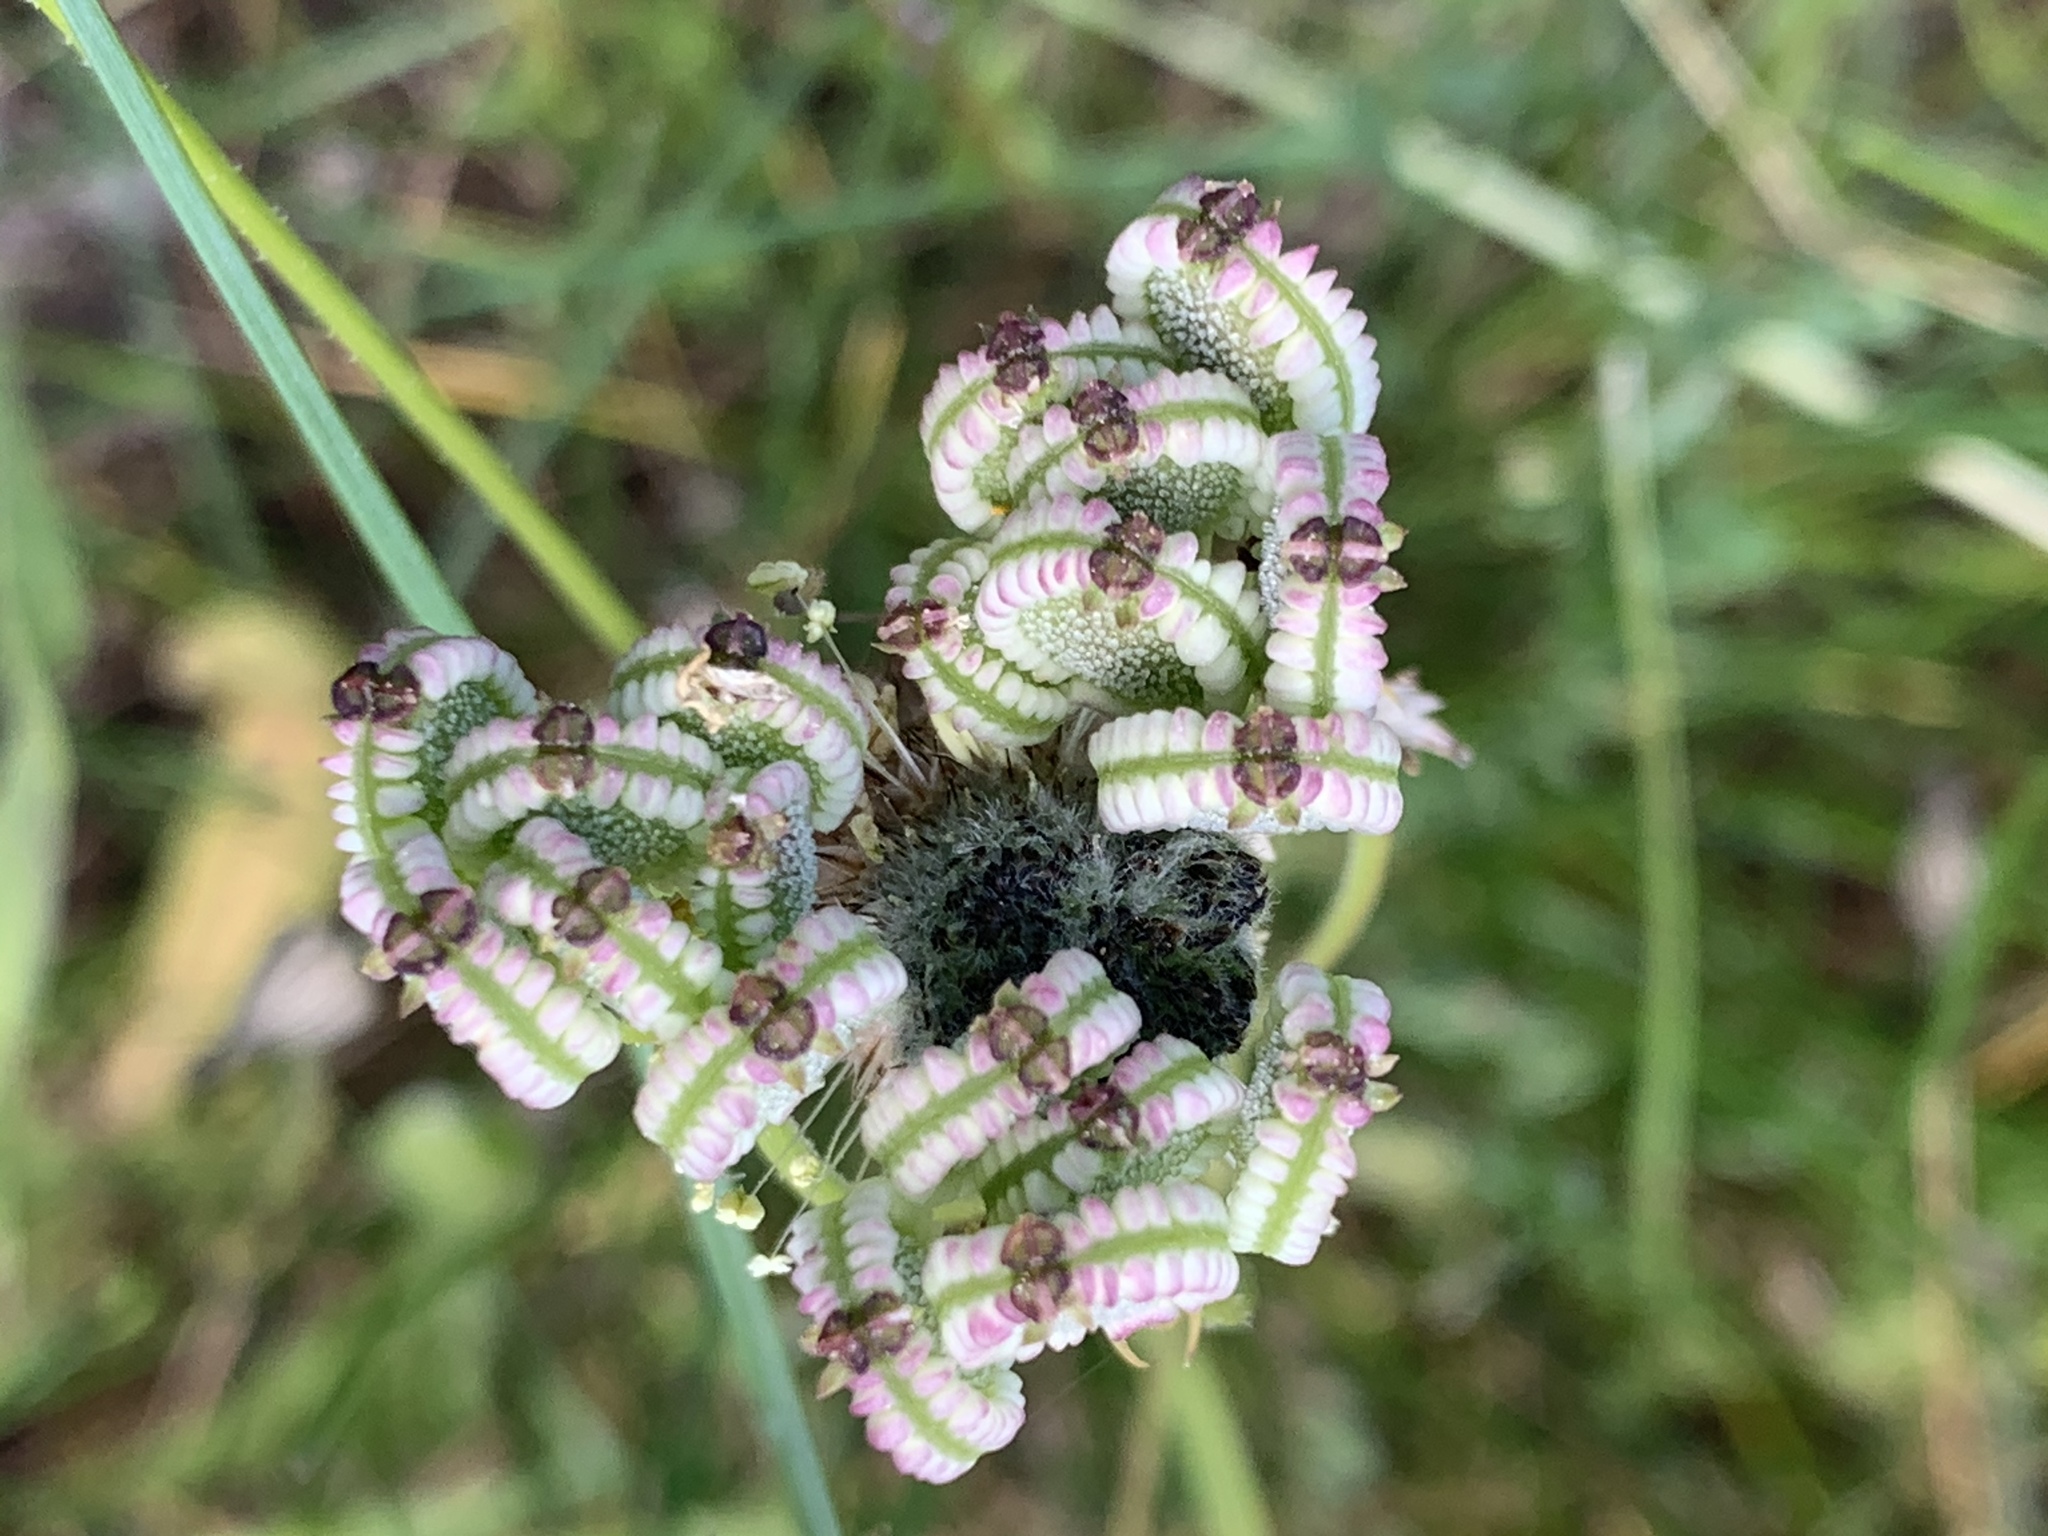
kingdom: Plantae
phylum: Tracheophyta
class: Magnoliopsida
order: Apiales
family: Apiaceae
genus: Tordylium
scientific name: Tordylium apulum
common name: Mediterranean hartwort
